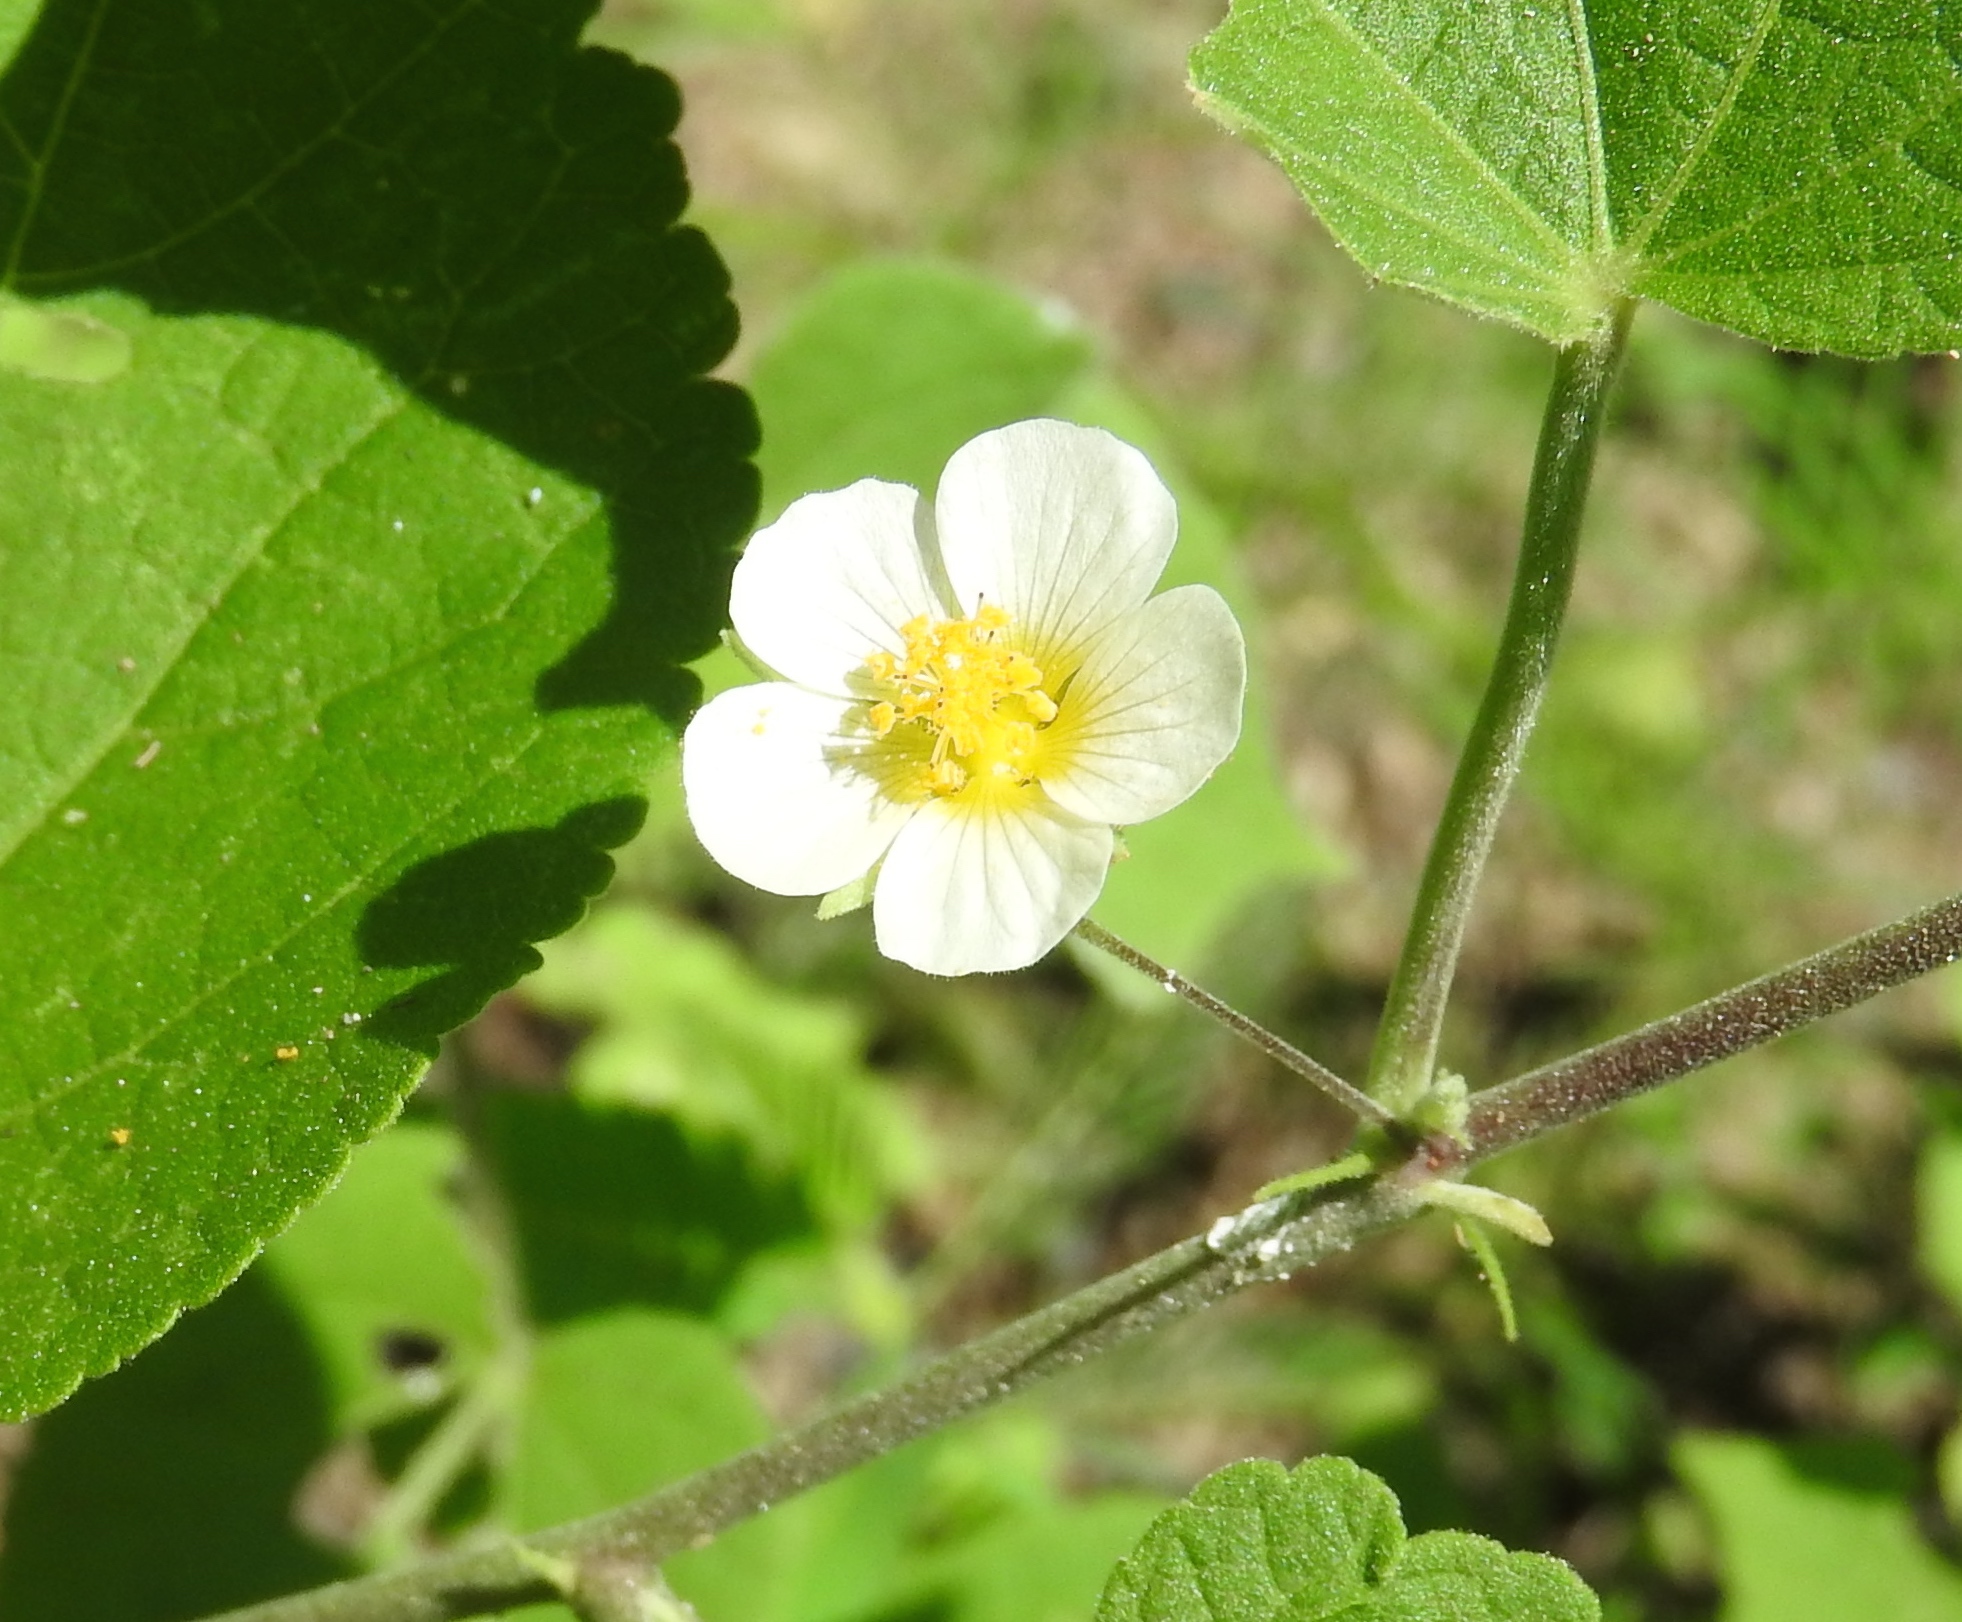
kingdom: Plantae
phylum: Tracheophyta
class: Magnoliopsida
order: Malvales
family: Malvaceae
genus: Herissantia
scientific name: Herissantia crispa
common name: Bladdermallow
